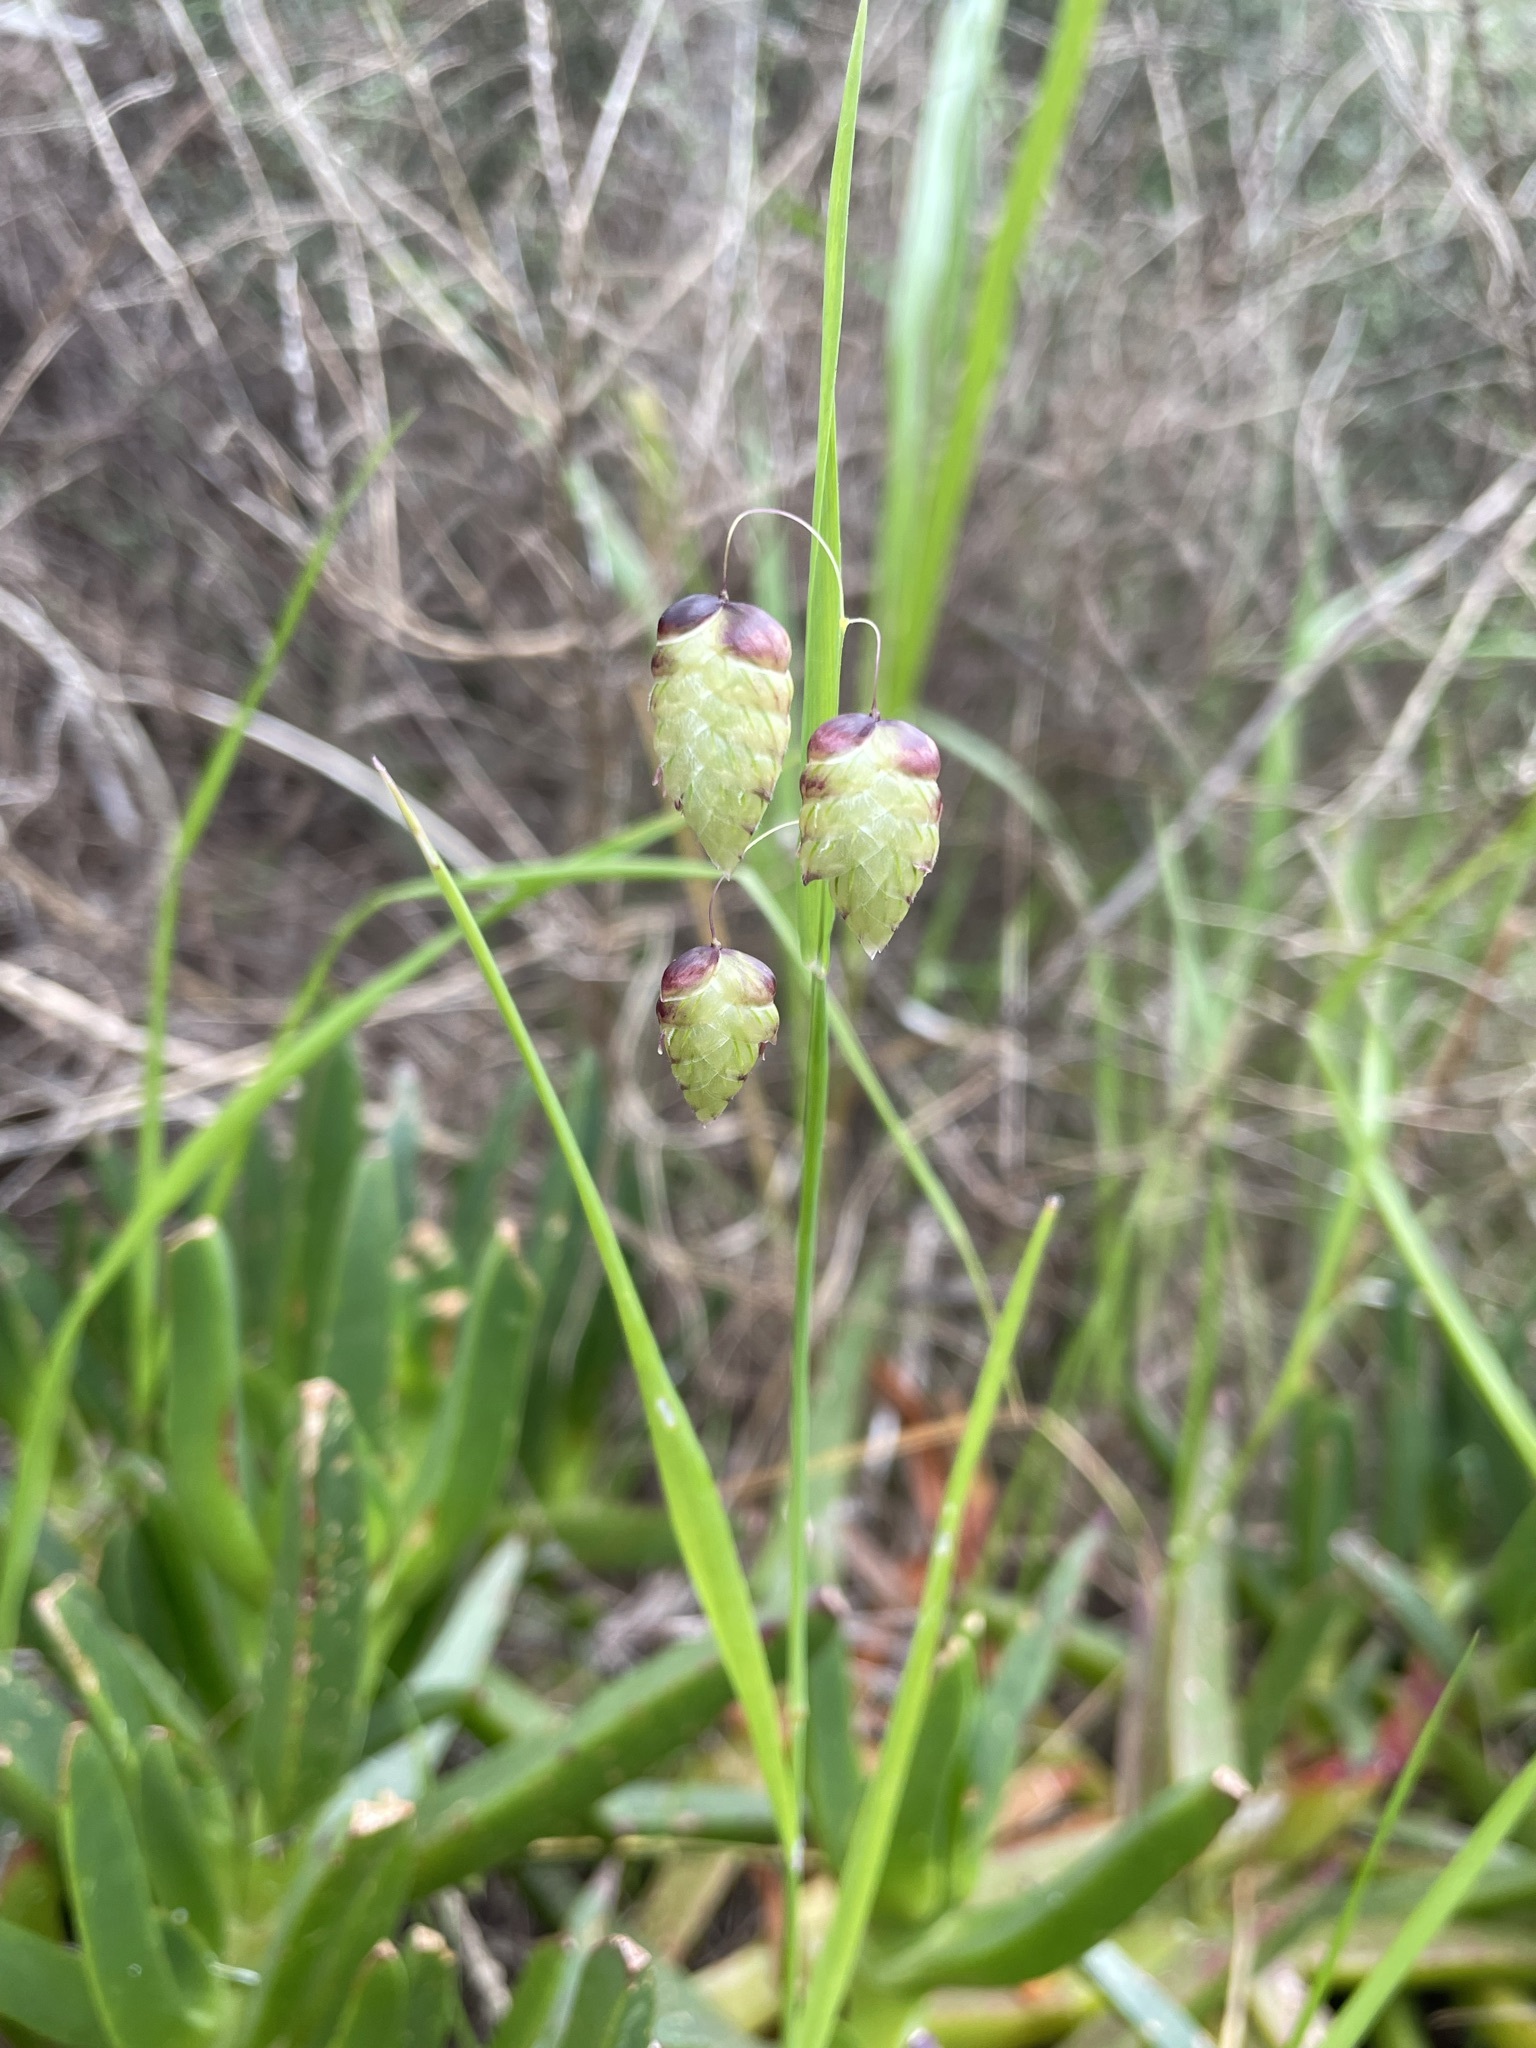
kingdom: Plantae
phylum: Tracheophyta
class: Liliopsida
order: Poales
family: Poaceae
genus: Briza
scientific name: Briza maxima
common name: Big quakinggrass
